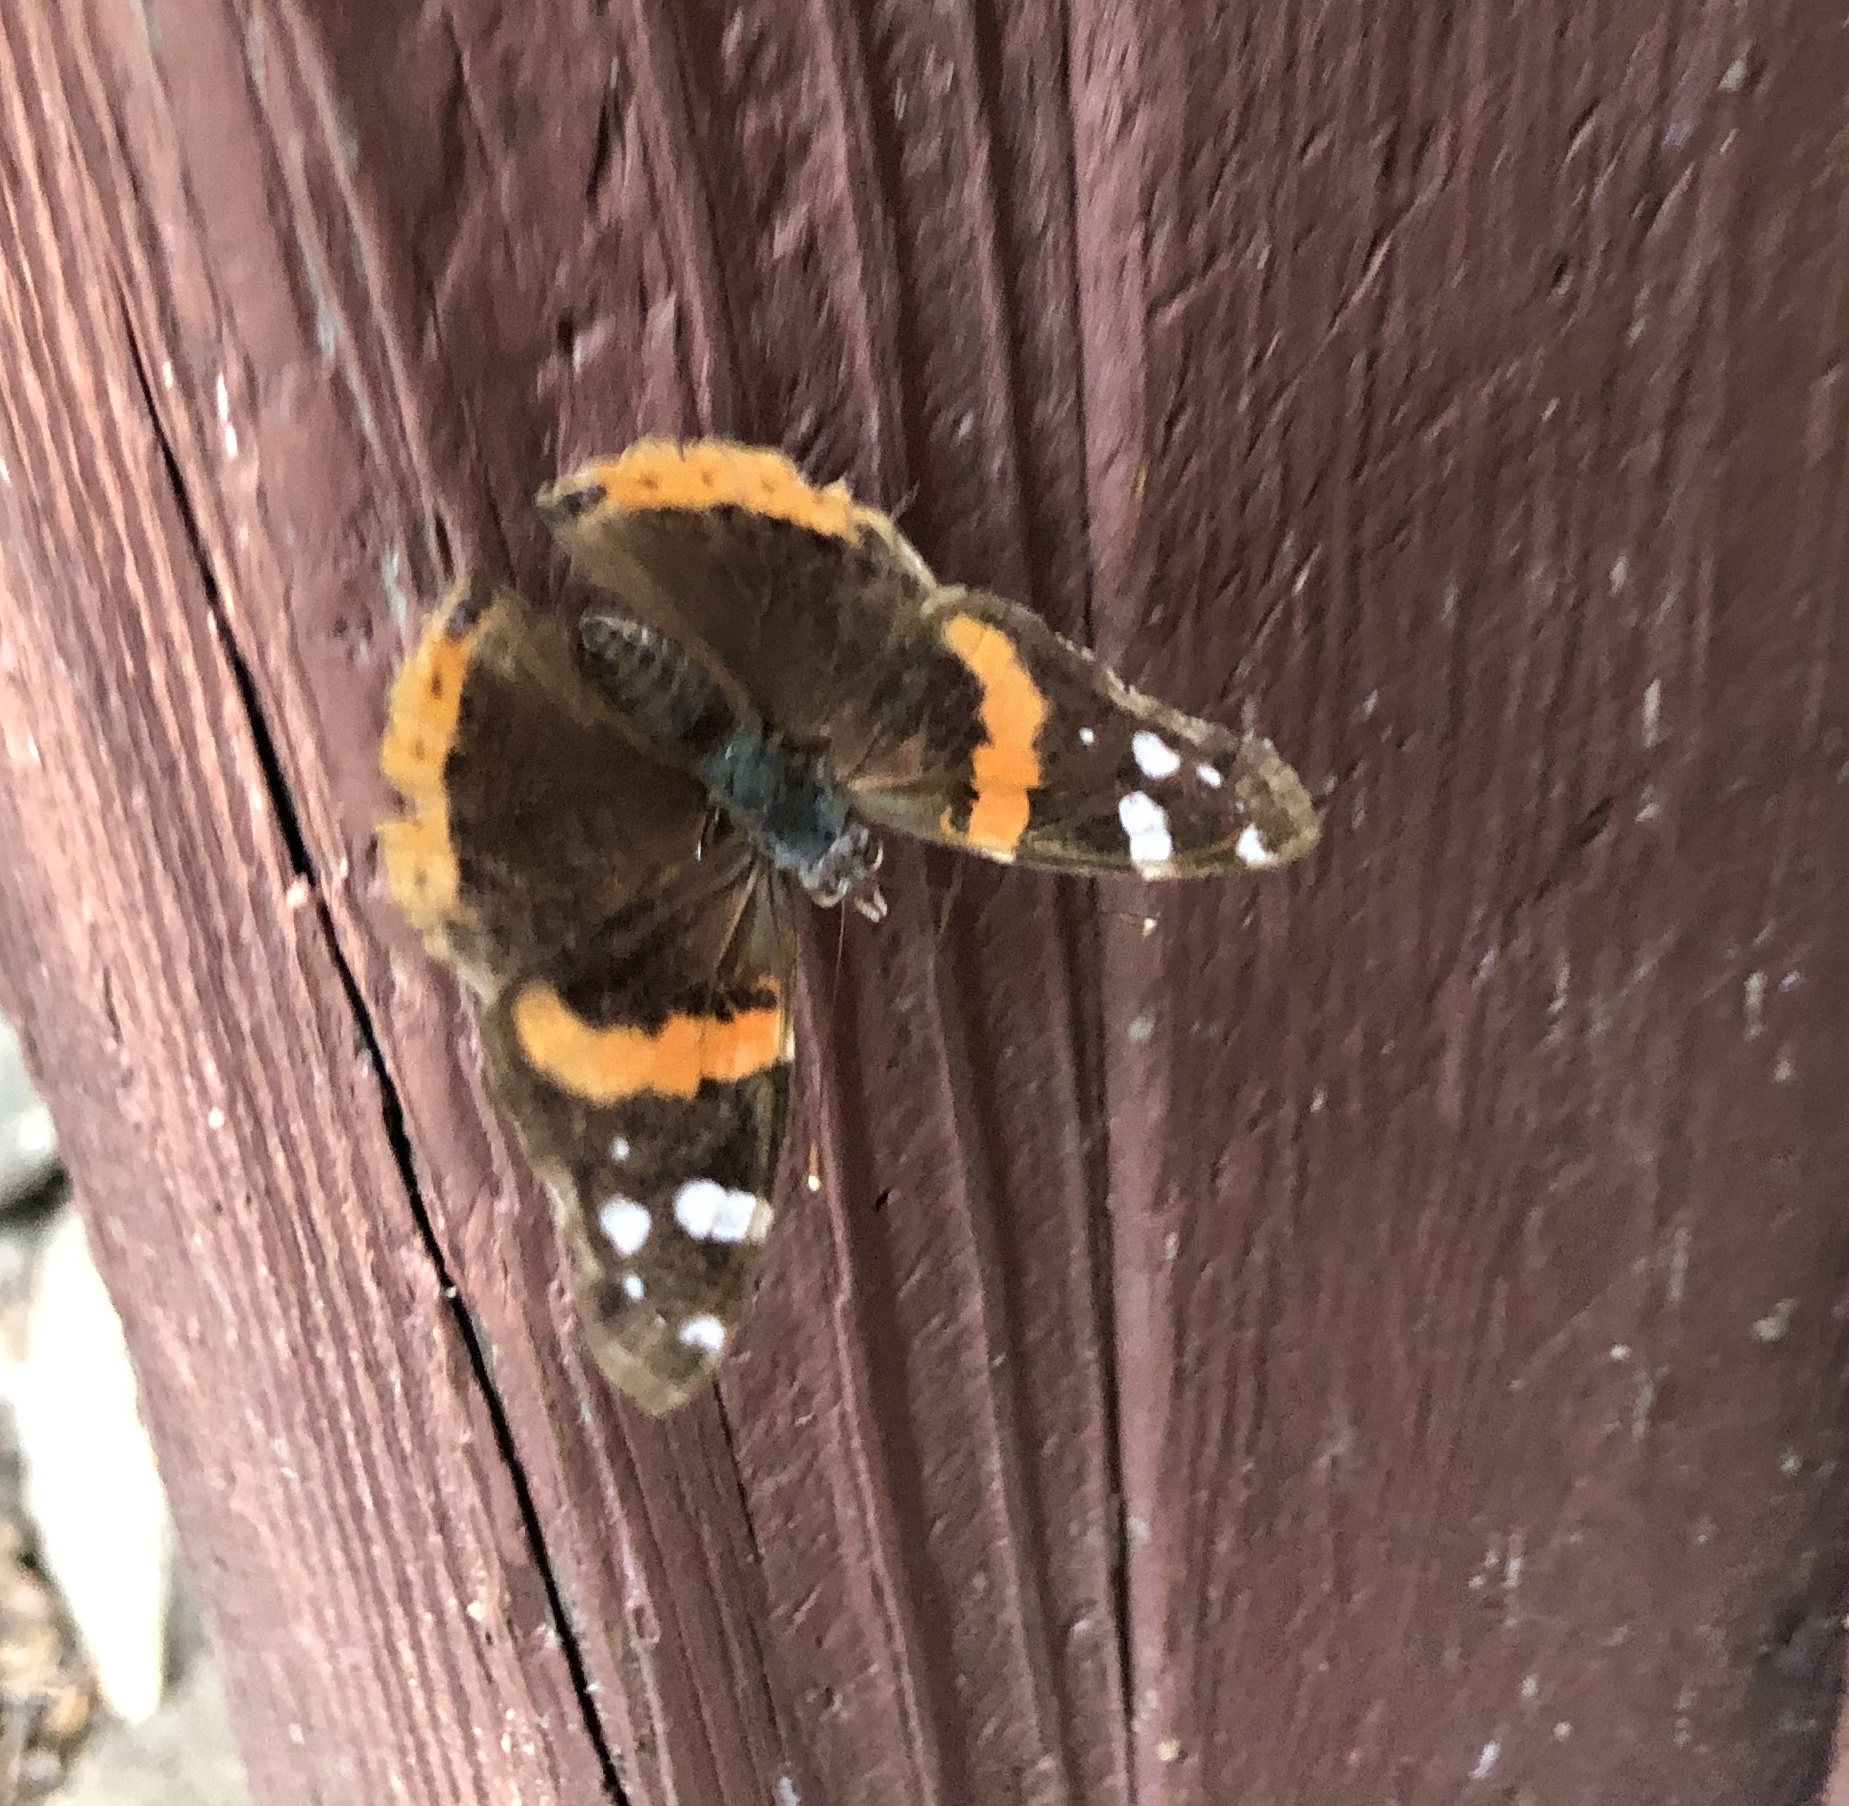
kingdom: Animalia
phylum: Arthropoda
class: Insecta
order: Lepidoptera
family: Nymphalidae
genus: Vanessa
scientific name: Vanessa atalanta
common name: Red admiral
